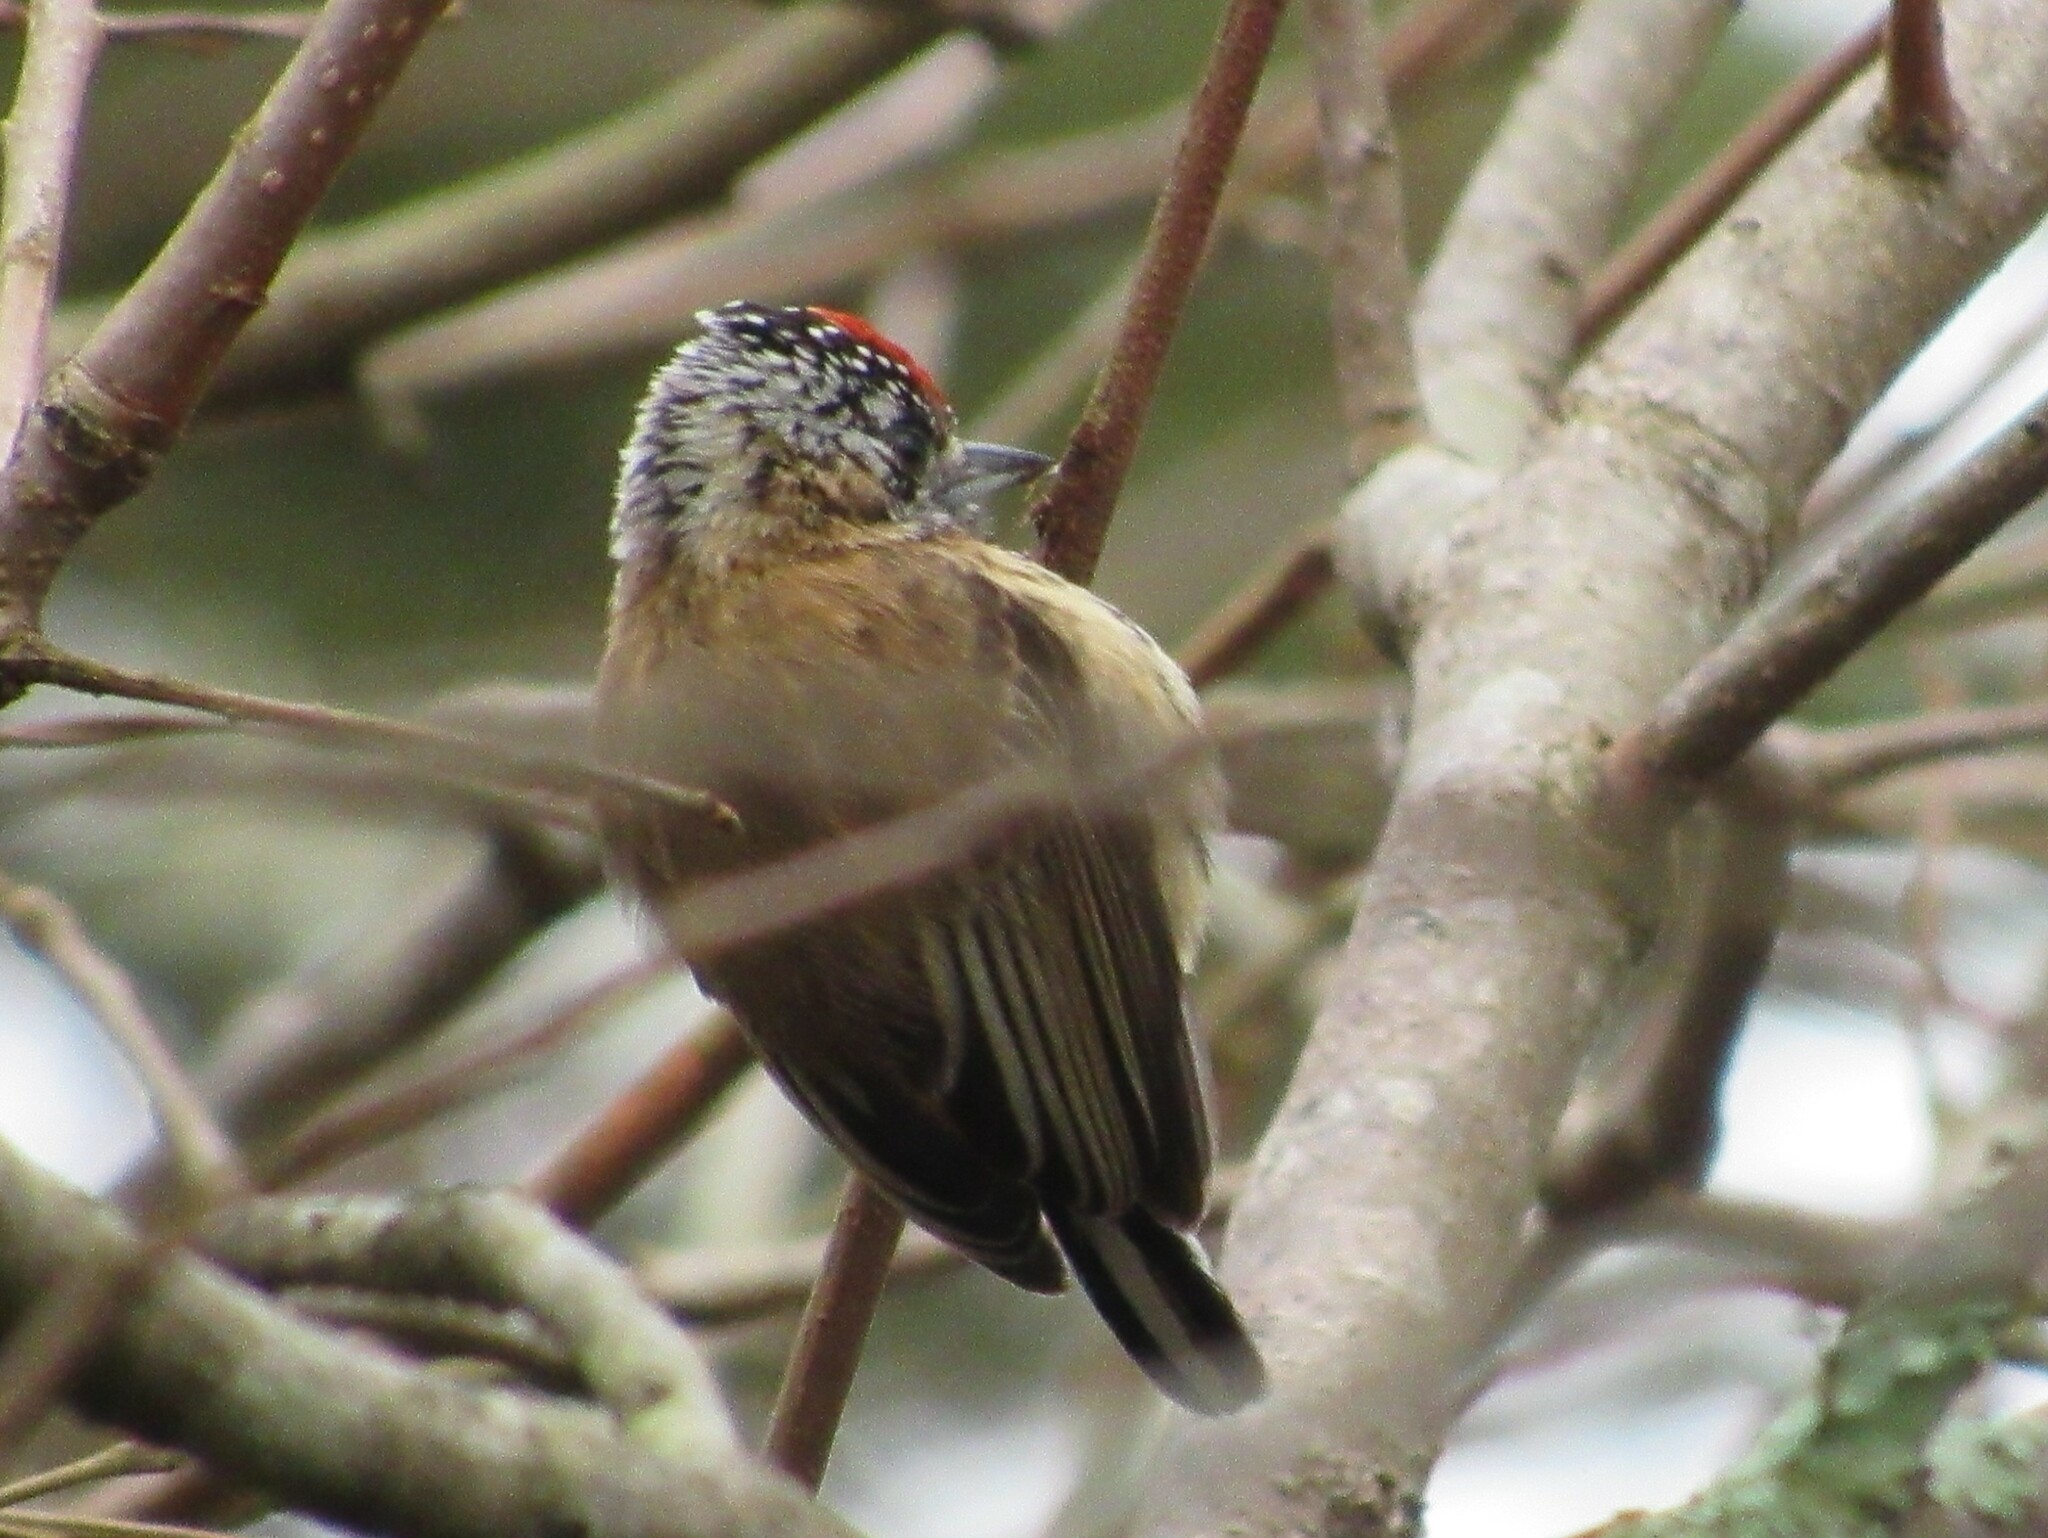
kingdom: Animalia
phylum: Chordata
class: Aves
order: Piciformes
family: Picidae
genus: Picumnus
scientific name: Picumnus nebulosus
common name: Mottled piculet
